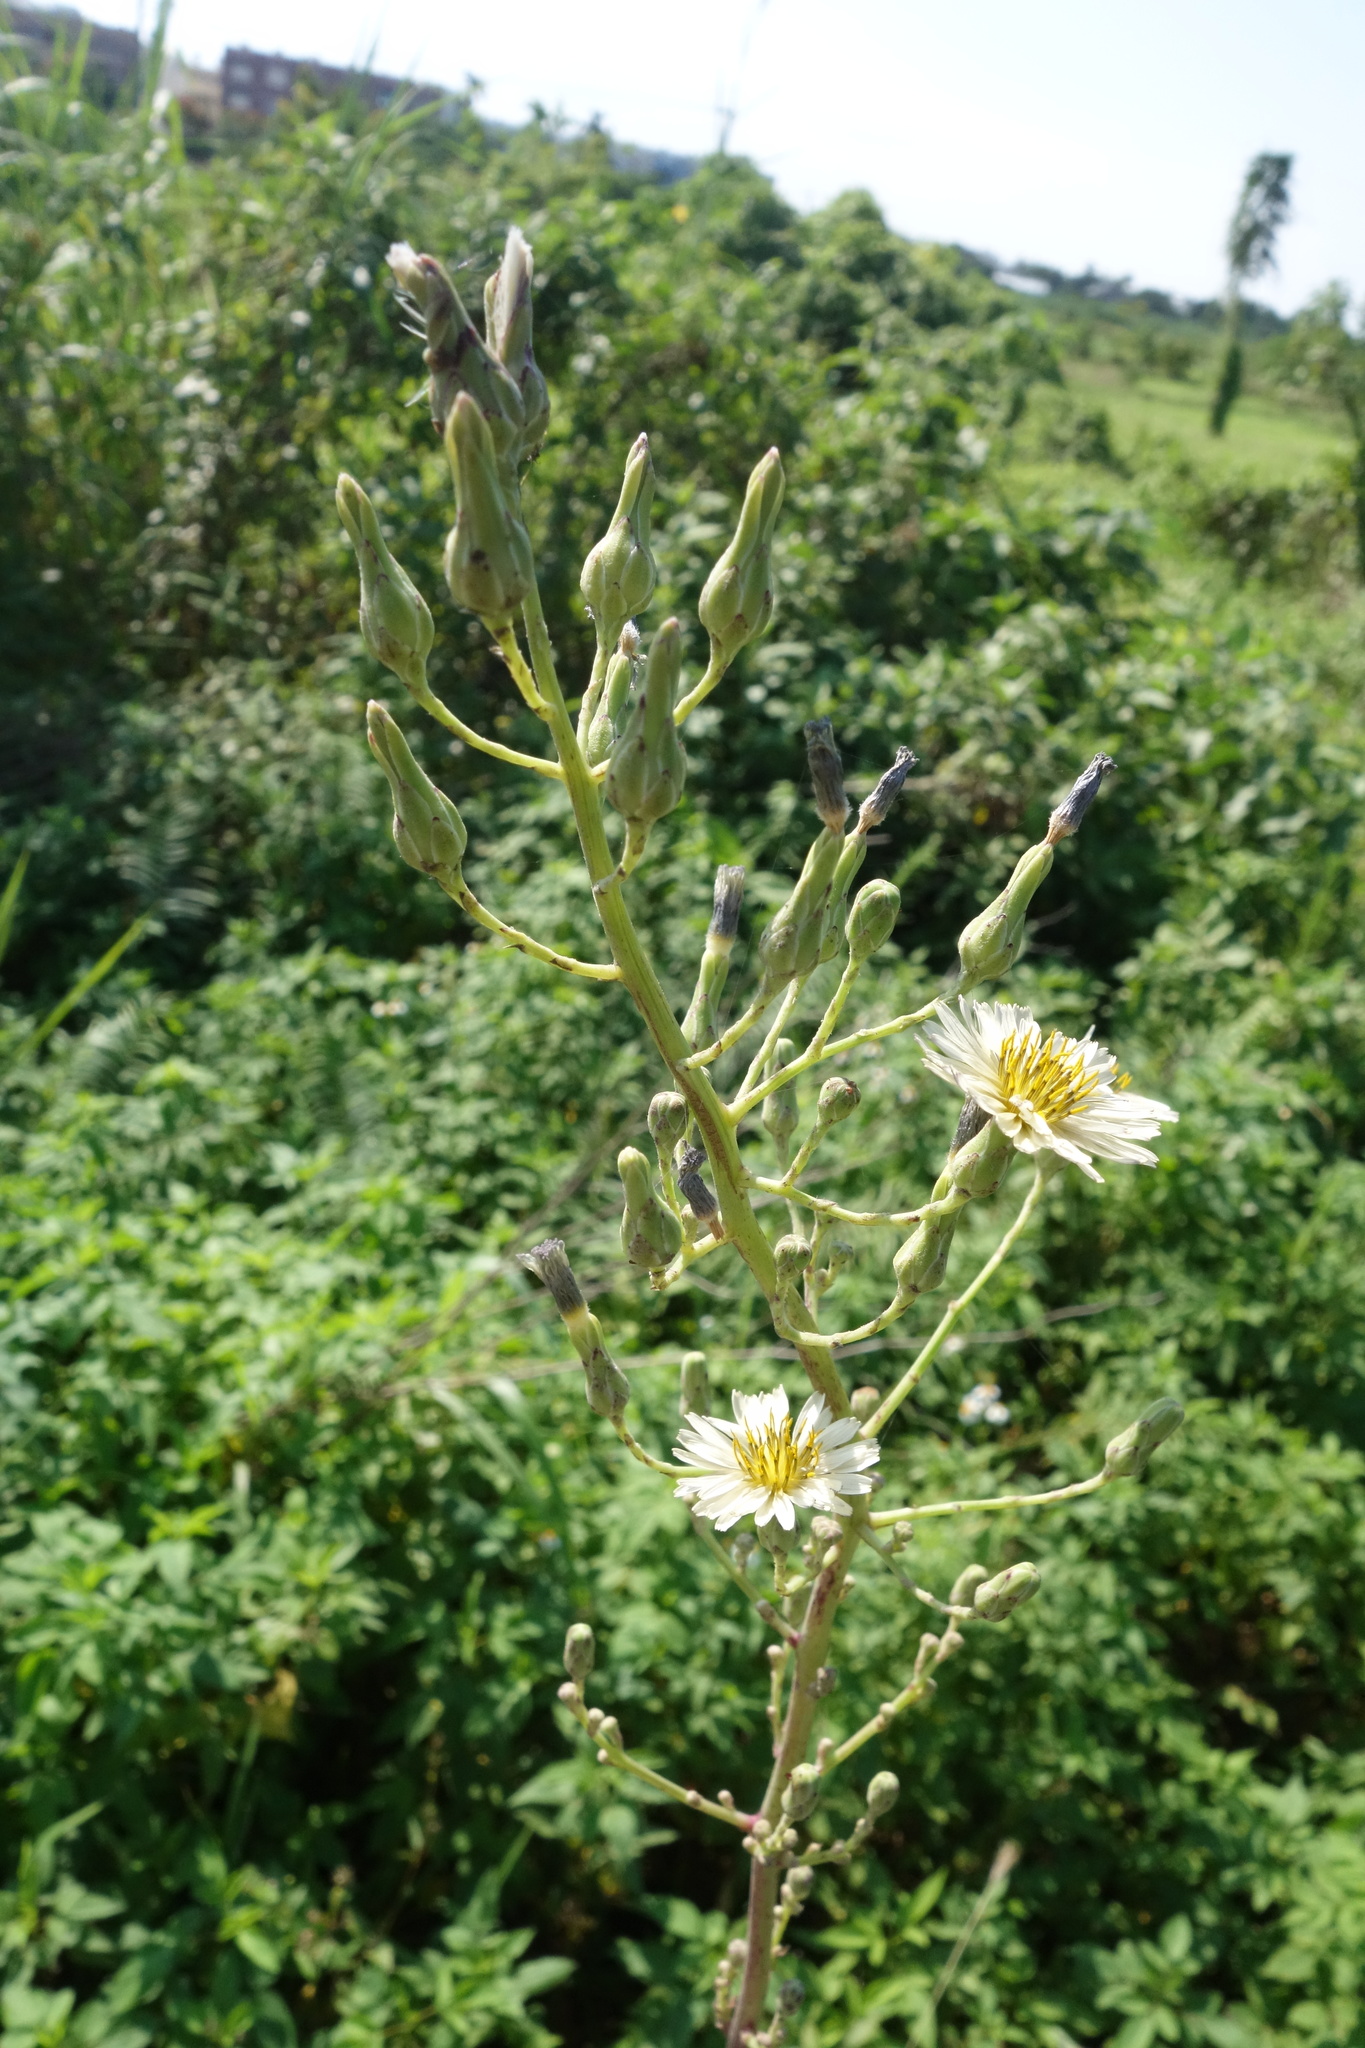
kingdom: Plantae
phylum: Tracheophyta
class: Magnoliopsida
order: Asterales
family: Asteraceae
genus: Lactuca
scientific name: Lactuca indica
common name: Wild lettuce
